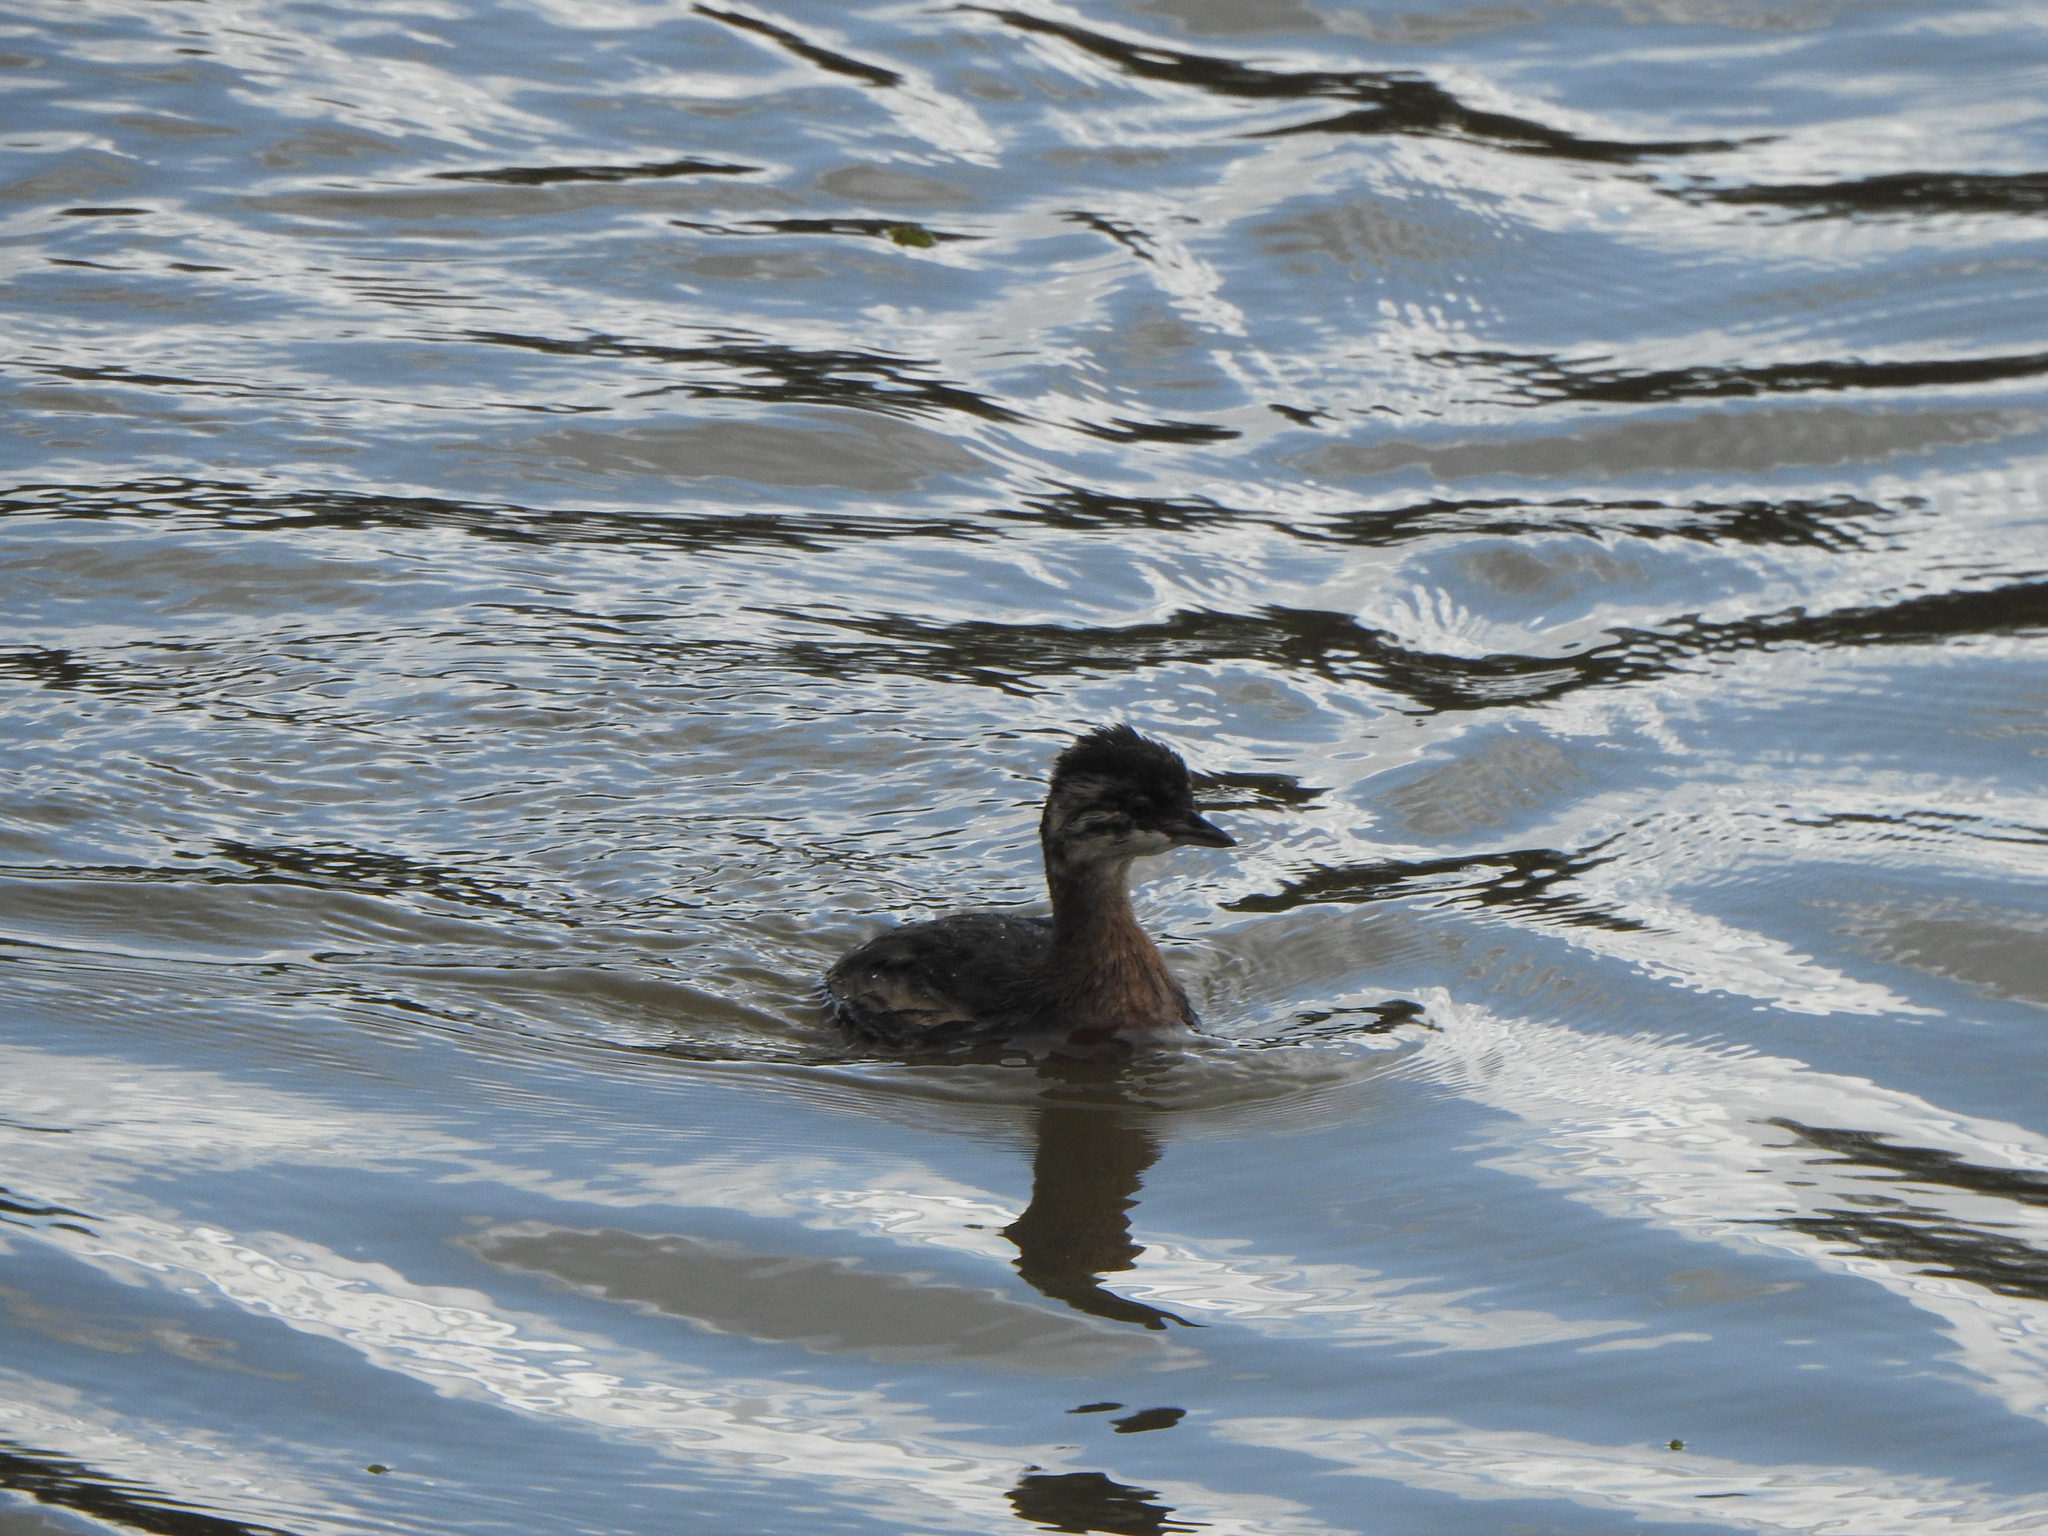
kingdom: Animalia
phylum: Chordata
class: Aves
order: Podicipediformes
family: Podicipedidae
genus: Rollandia
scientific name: Rollandia rolland
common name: White-tufted grebe
